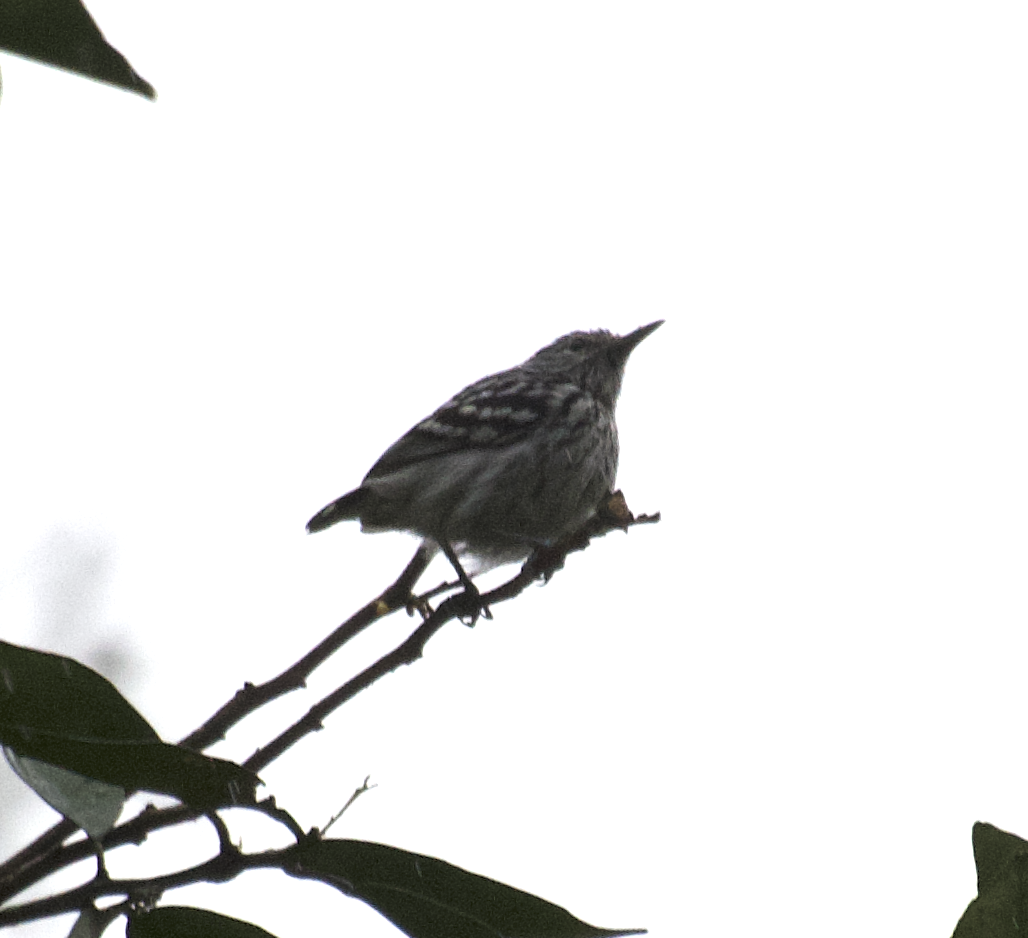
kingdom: Animalia
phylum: Chordata
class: Aves
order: Passeriformes
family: Thamnophilidae
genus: Myrmotherula
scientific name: Myrmotherula pacifica
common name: Pacific antwren
